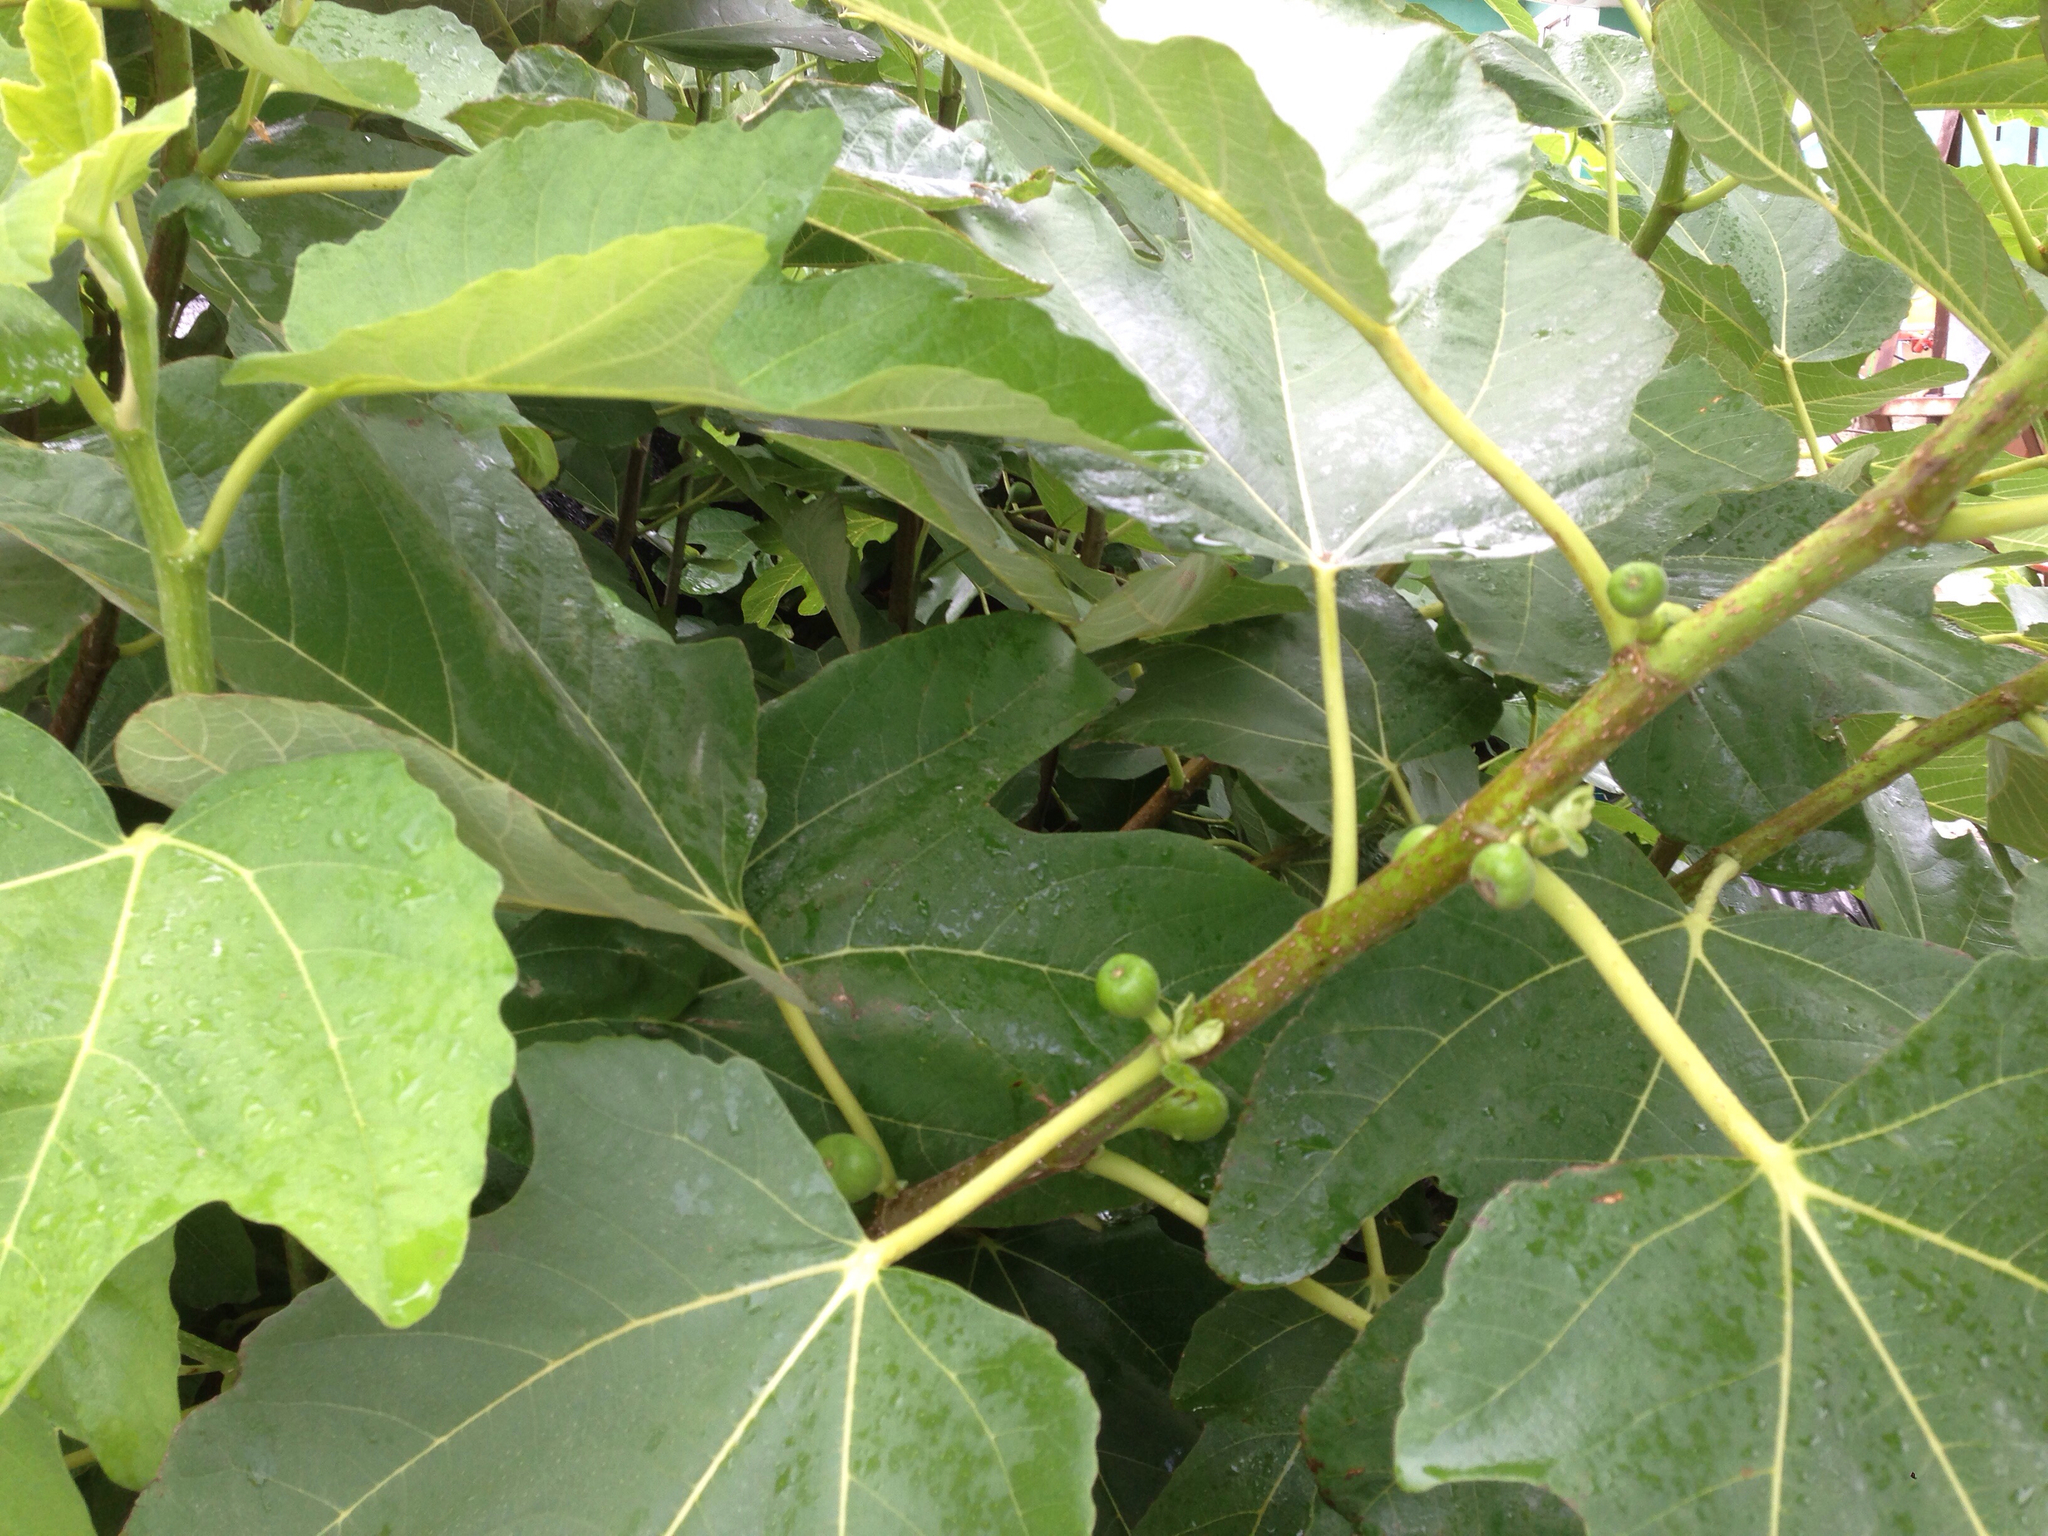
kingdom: Plantae
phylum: Tracheophyta
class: Magnoliopsida
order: Rosales
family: Moraceae
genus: Ficus
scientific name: Ficus carica
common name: Fig
